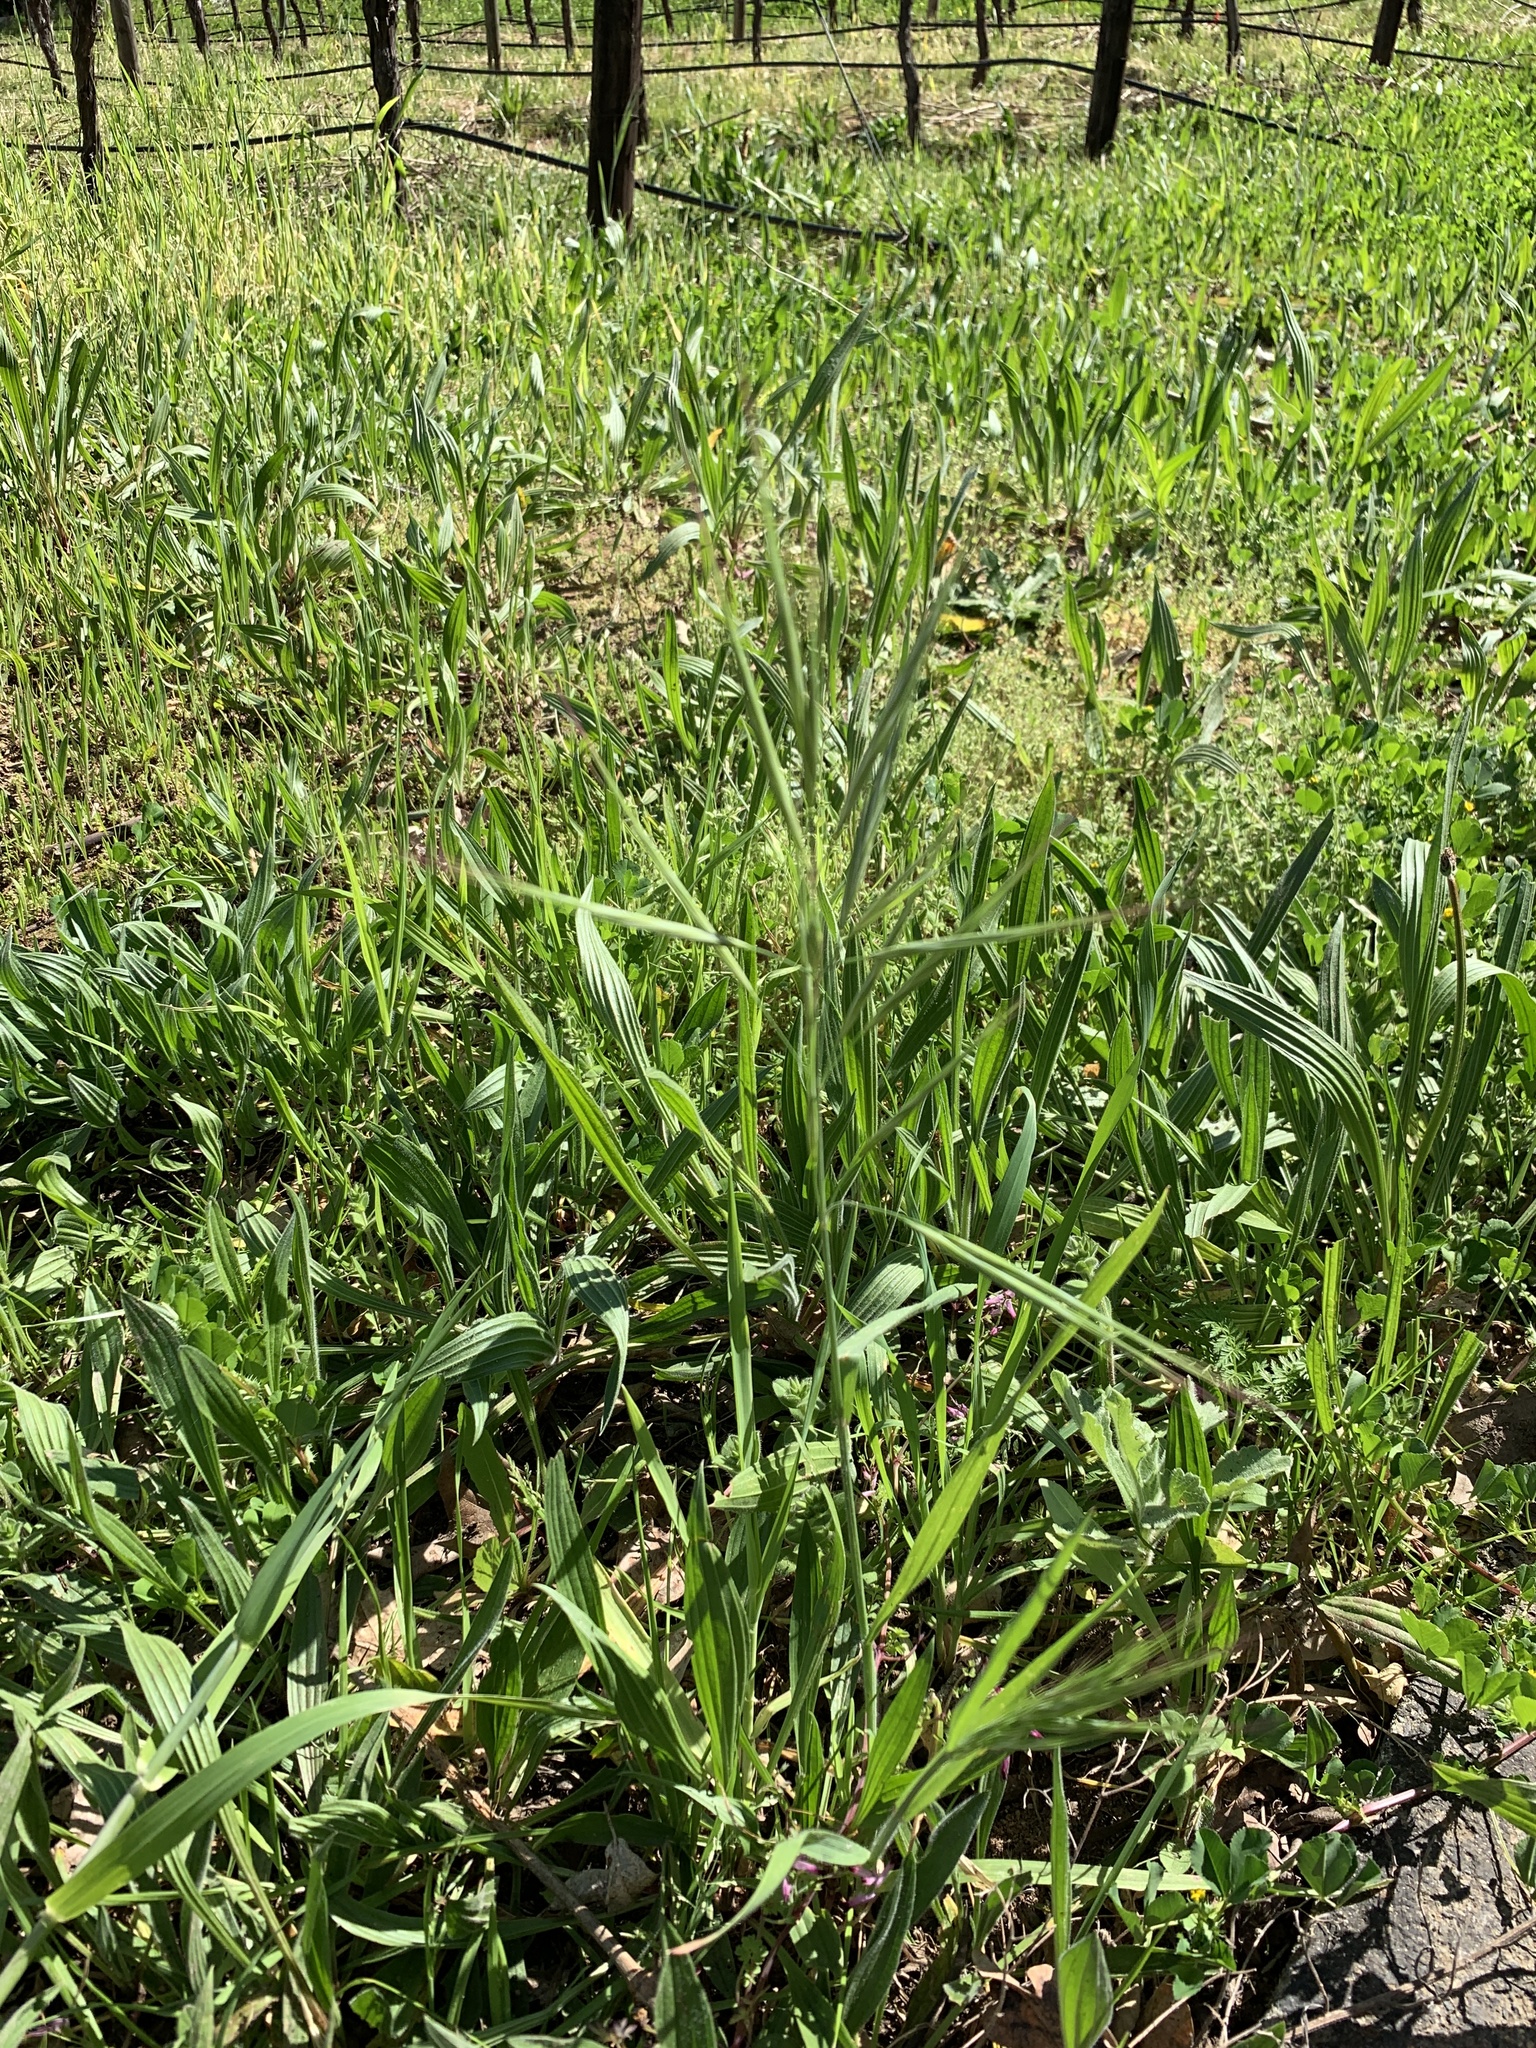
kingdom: Plantae
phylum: Tracheophyta
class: Liliopsida
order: Poales
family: Poaceae
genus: Bromus
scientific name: Bromus diandrus
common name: Ripgut brome
